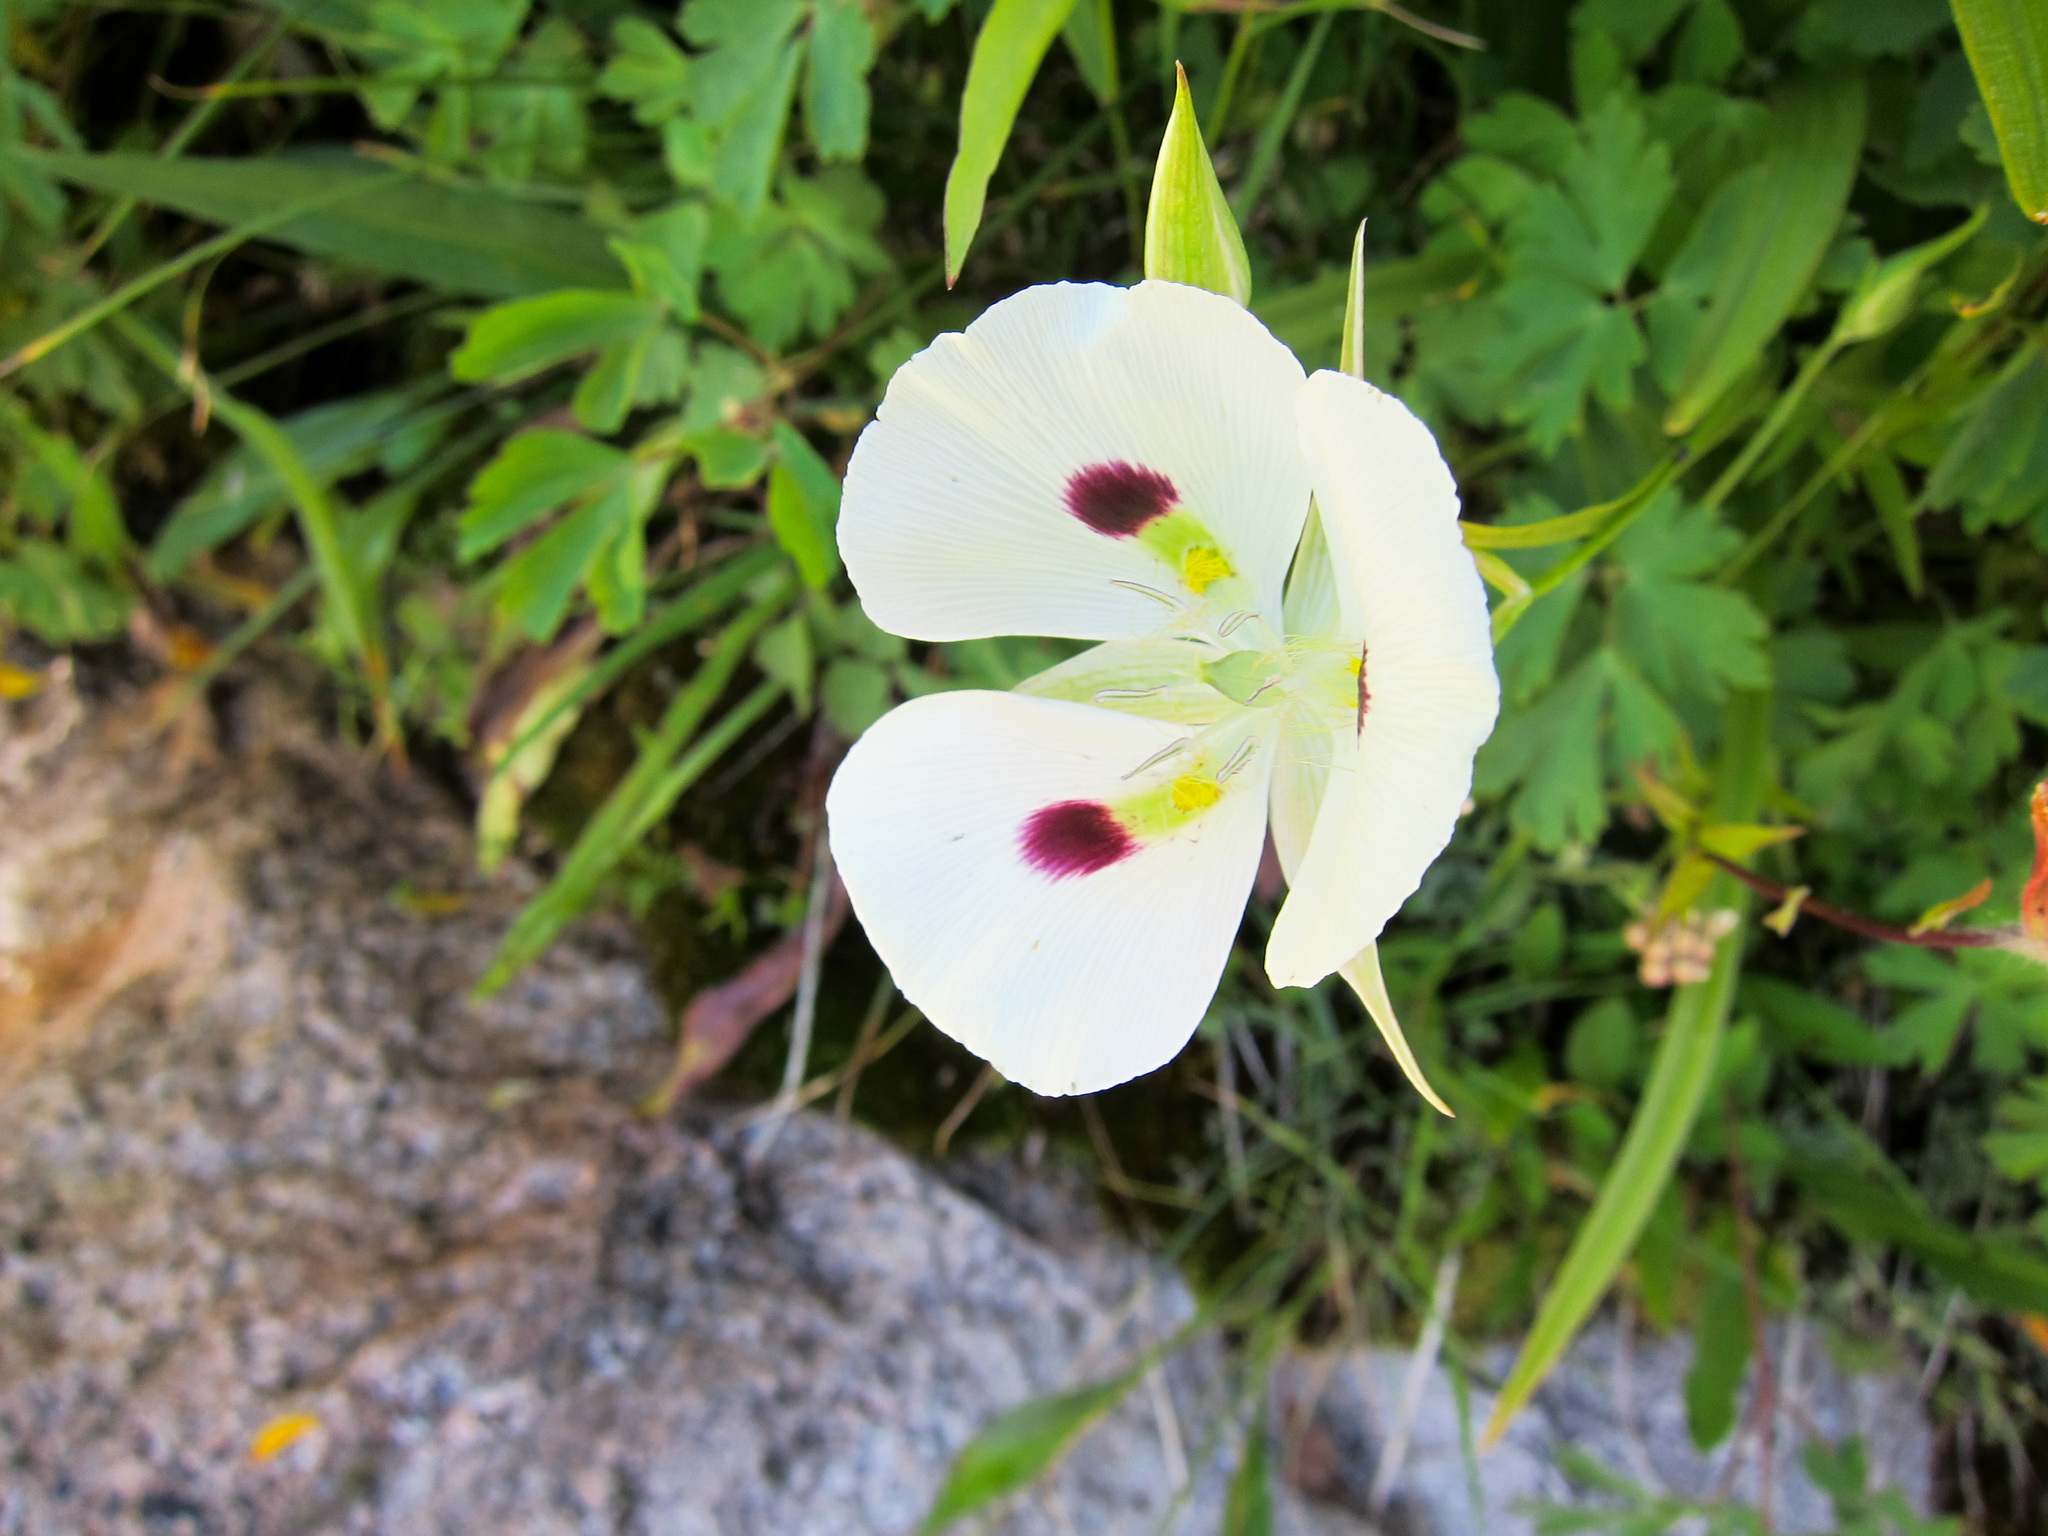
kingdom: Plantae
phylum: Tracheophyta
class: Liliopsida
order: Liliales
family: Liliaceae
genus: Calochortus
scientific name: Calochortus eurycarpus
